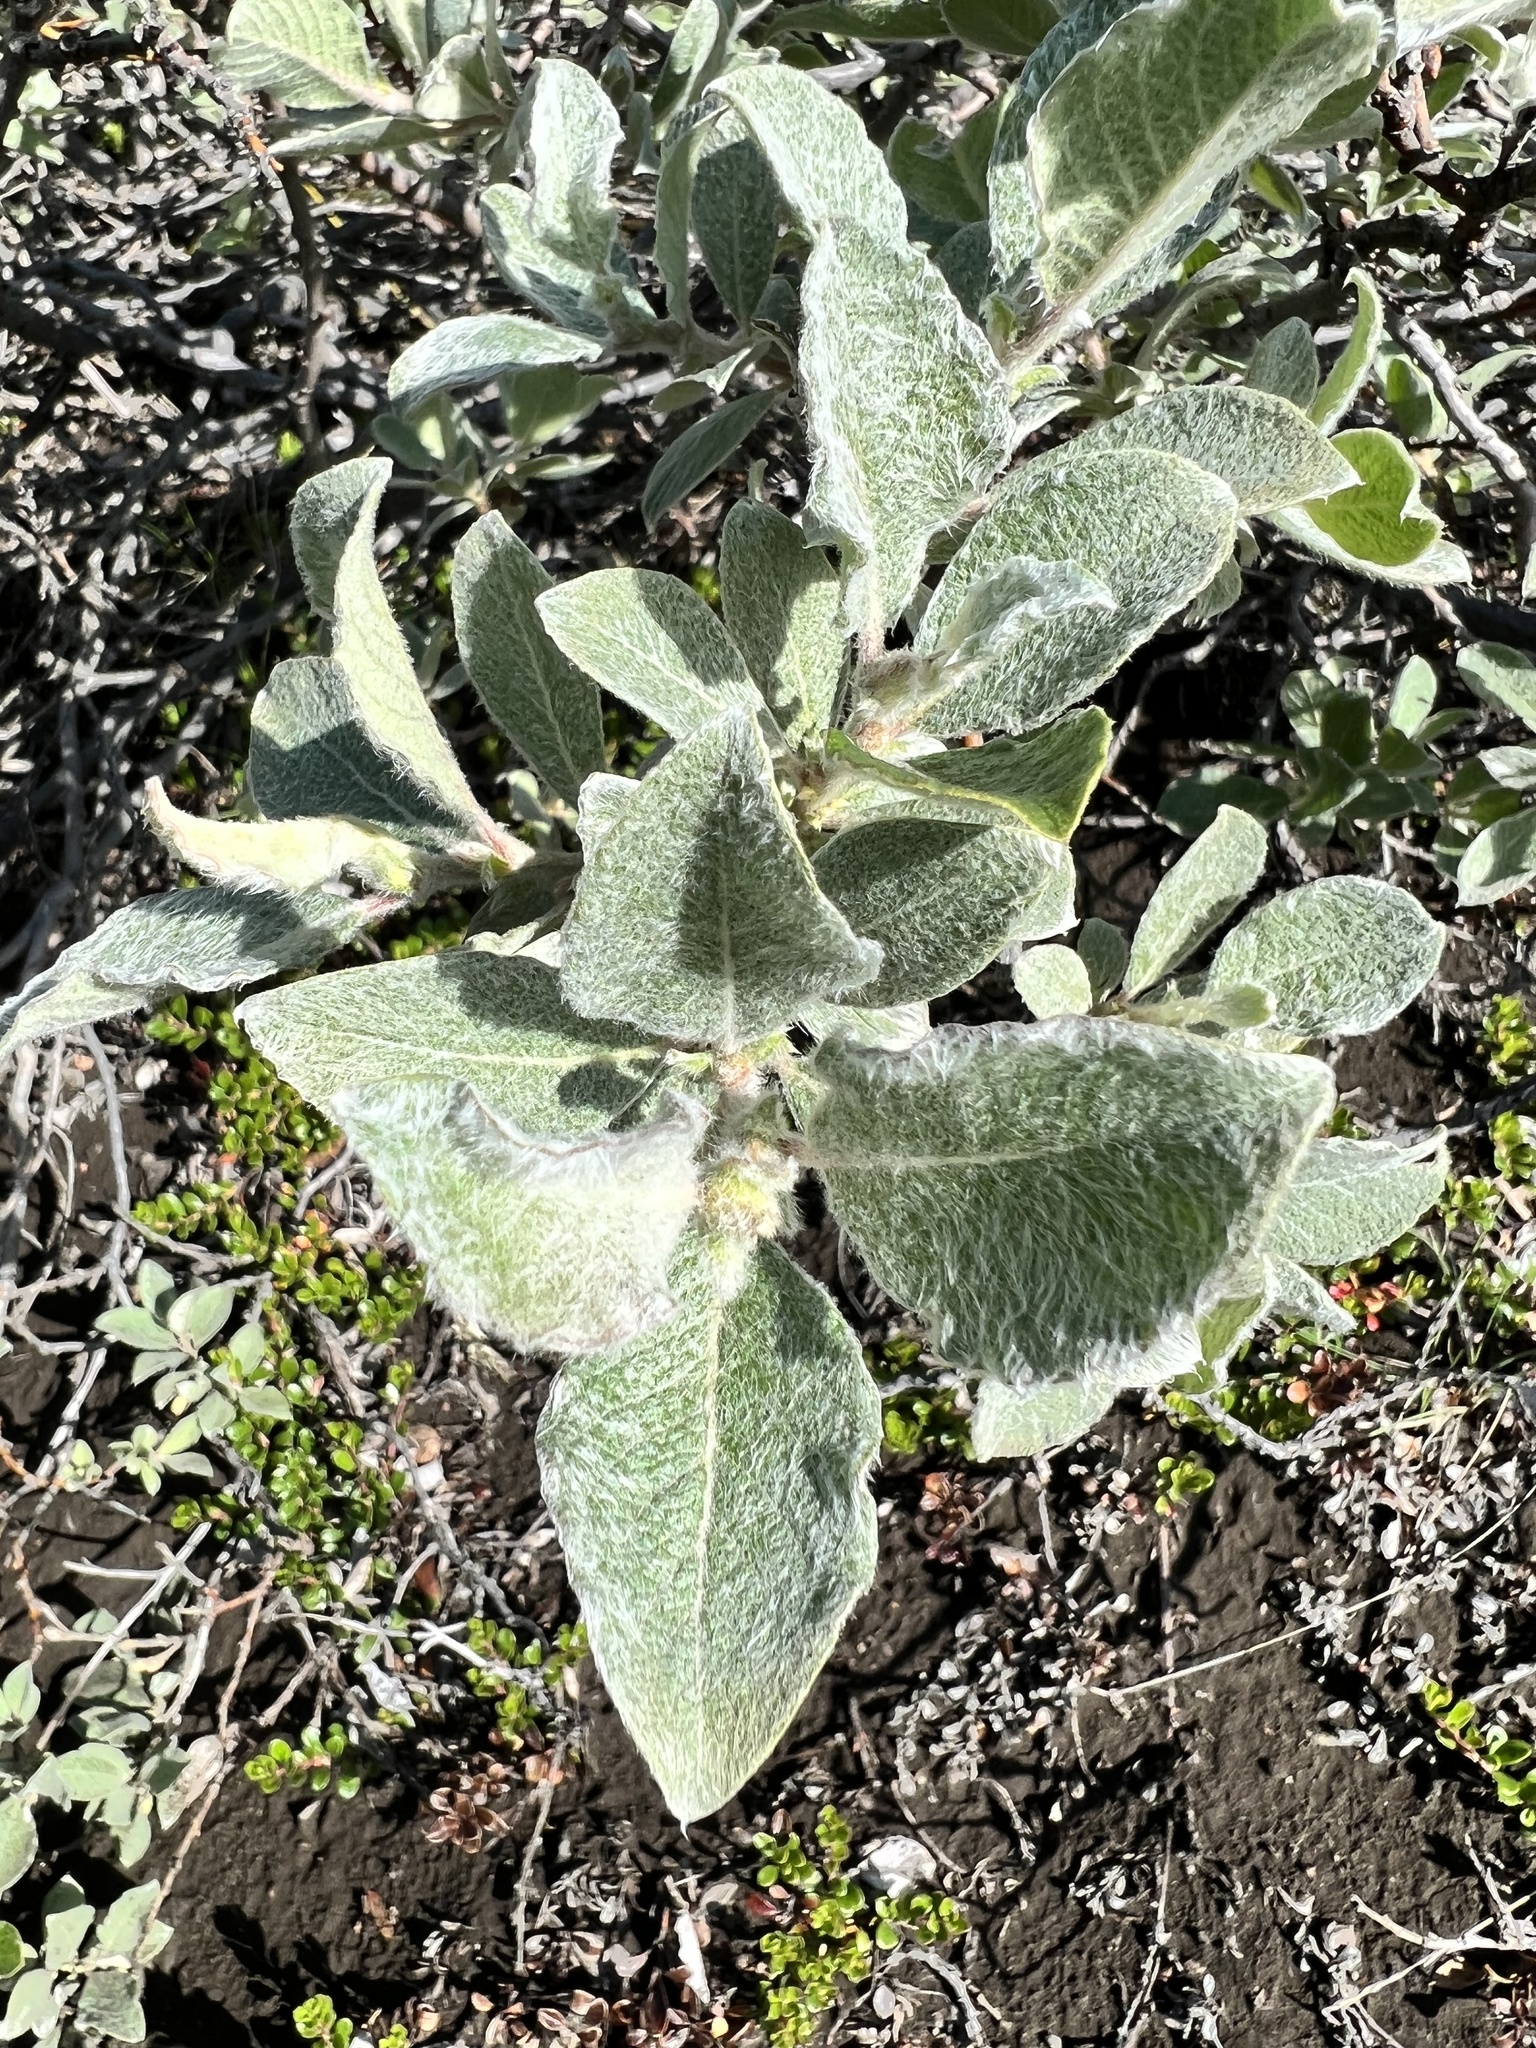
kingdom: Plantae
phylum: Tracheophyta
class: Magnoliopsida
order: Malpighiales
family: Salicaceae
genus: Salix
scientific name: Salix lanata
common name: Woolly willow
